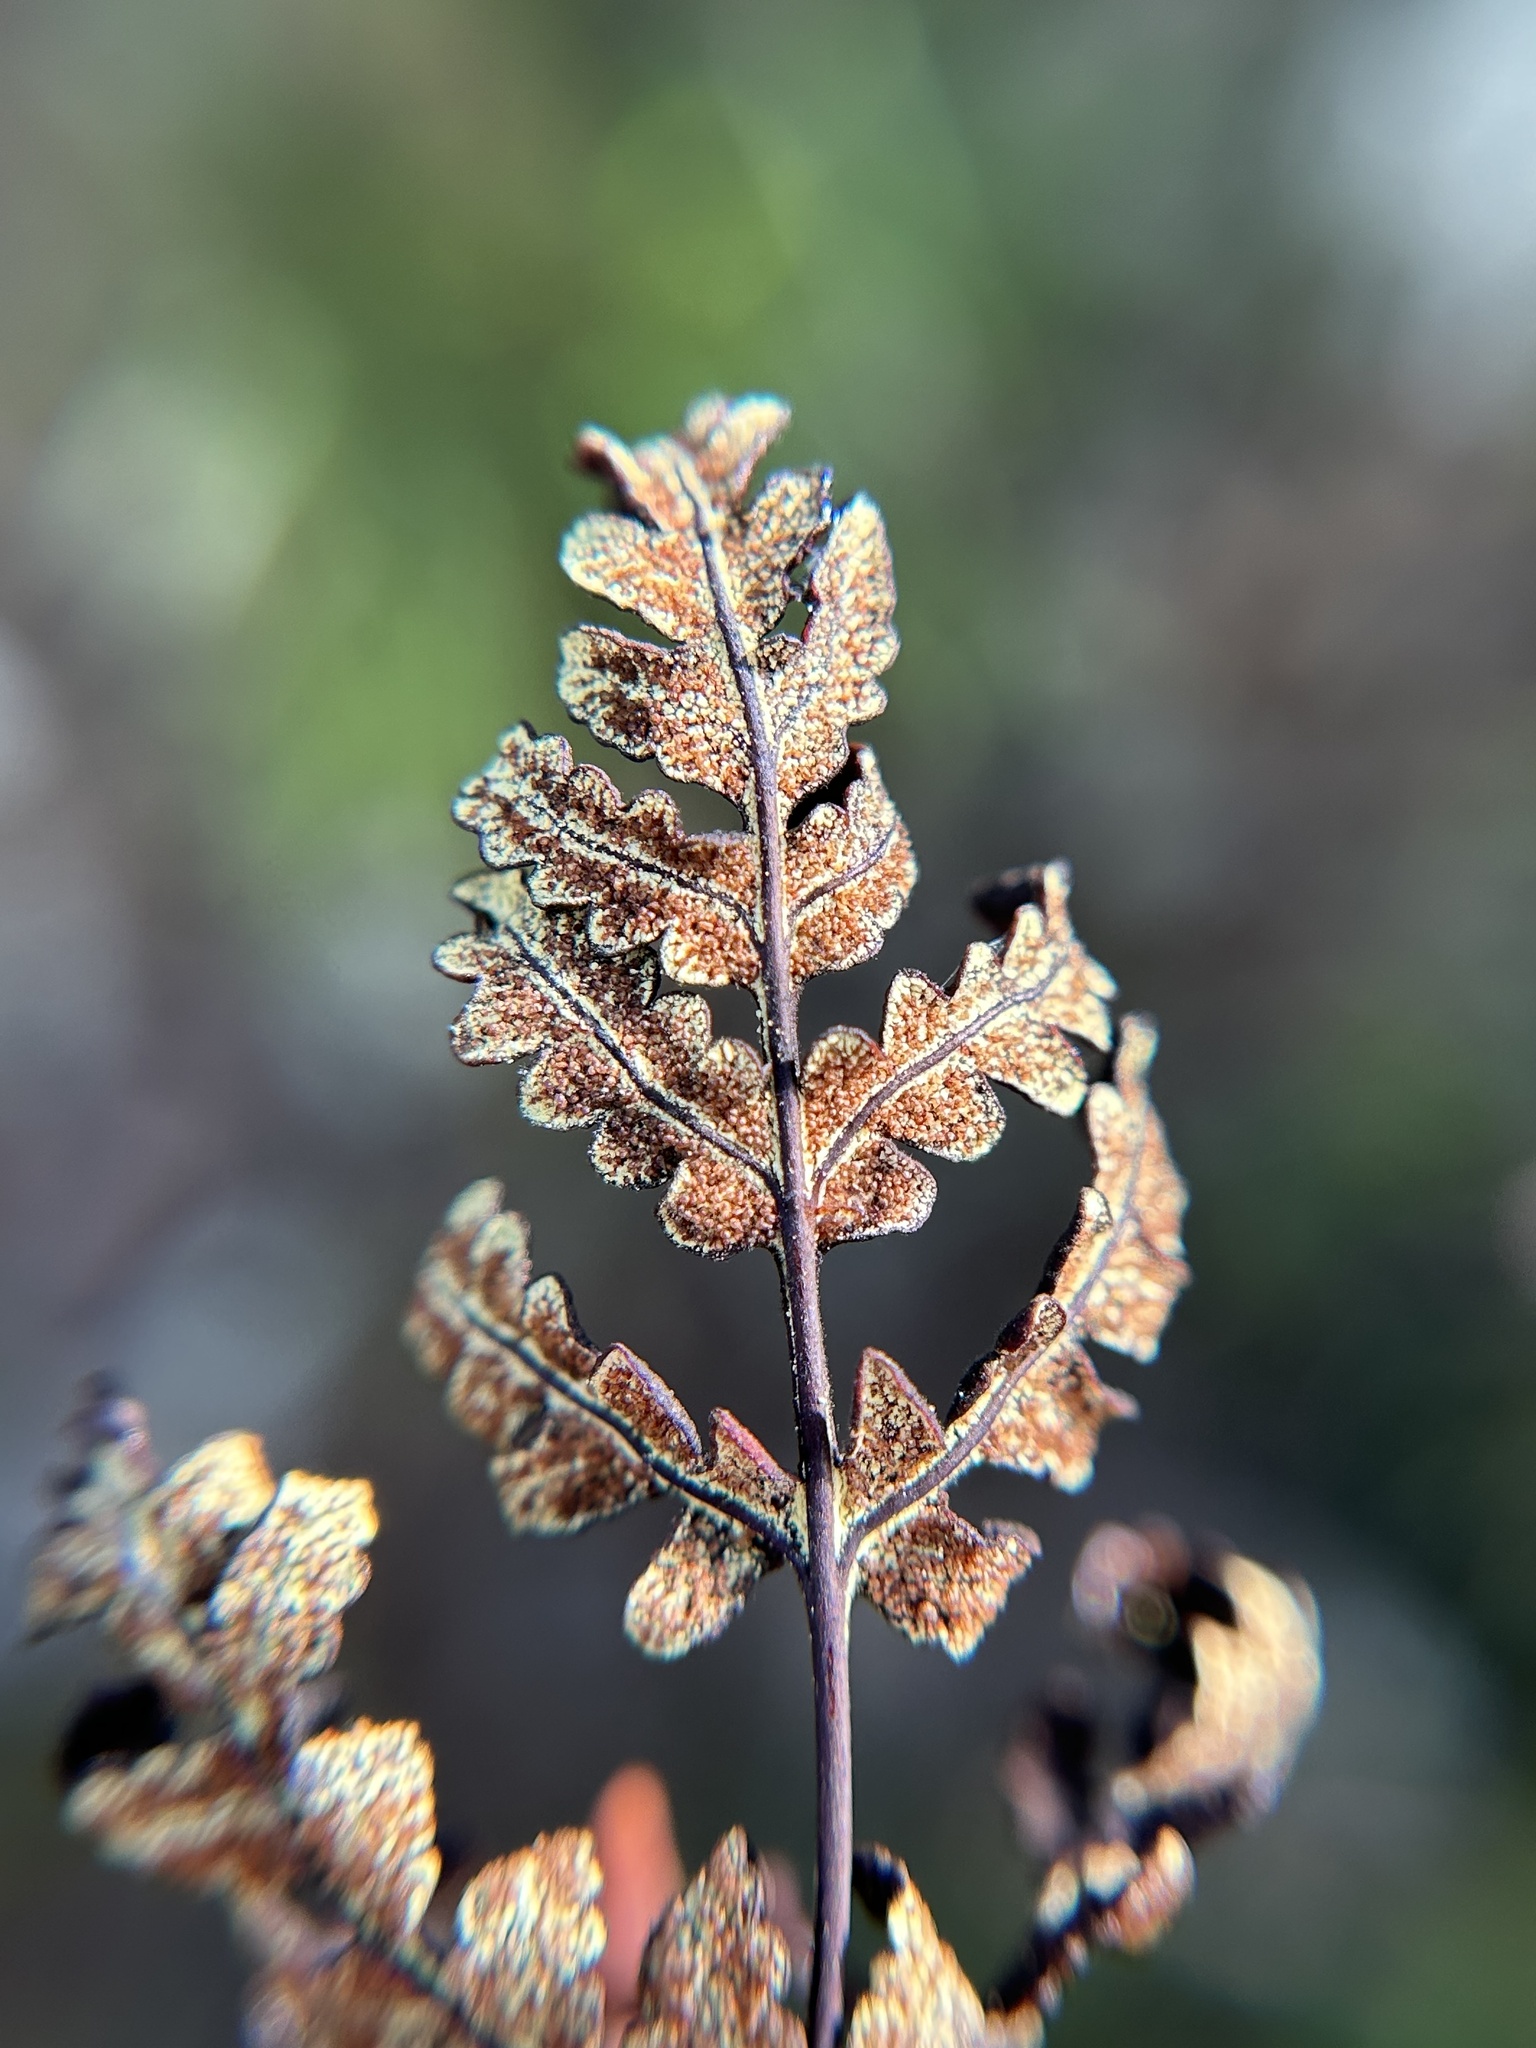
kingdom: Plantae
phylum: Tracheophyta
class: Polypodiopsida
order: Polypodiales
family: Pteridaceae
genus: Pentagramma
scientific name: Pentagramma triangularis
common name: Gold fern
